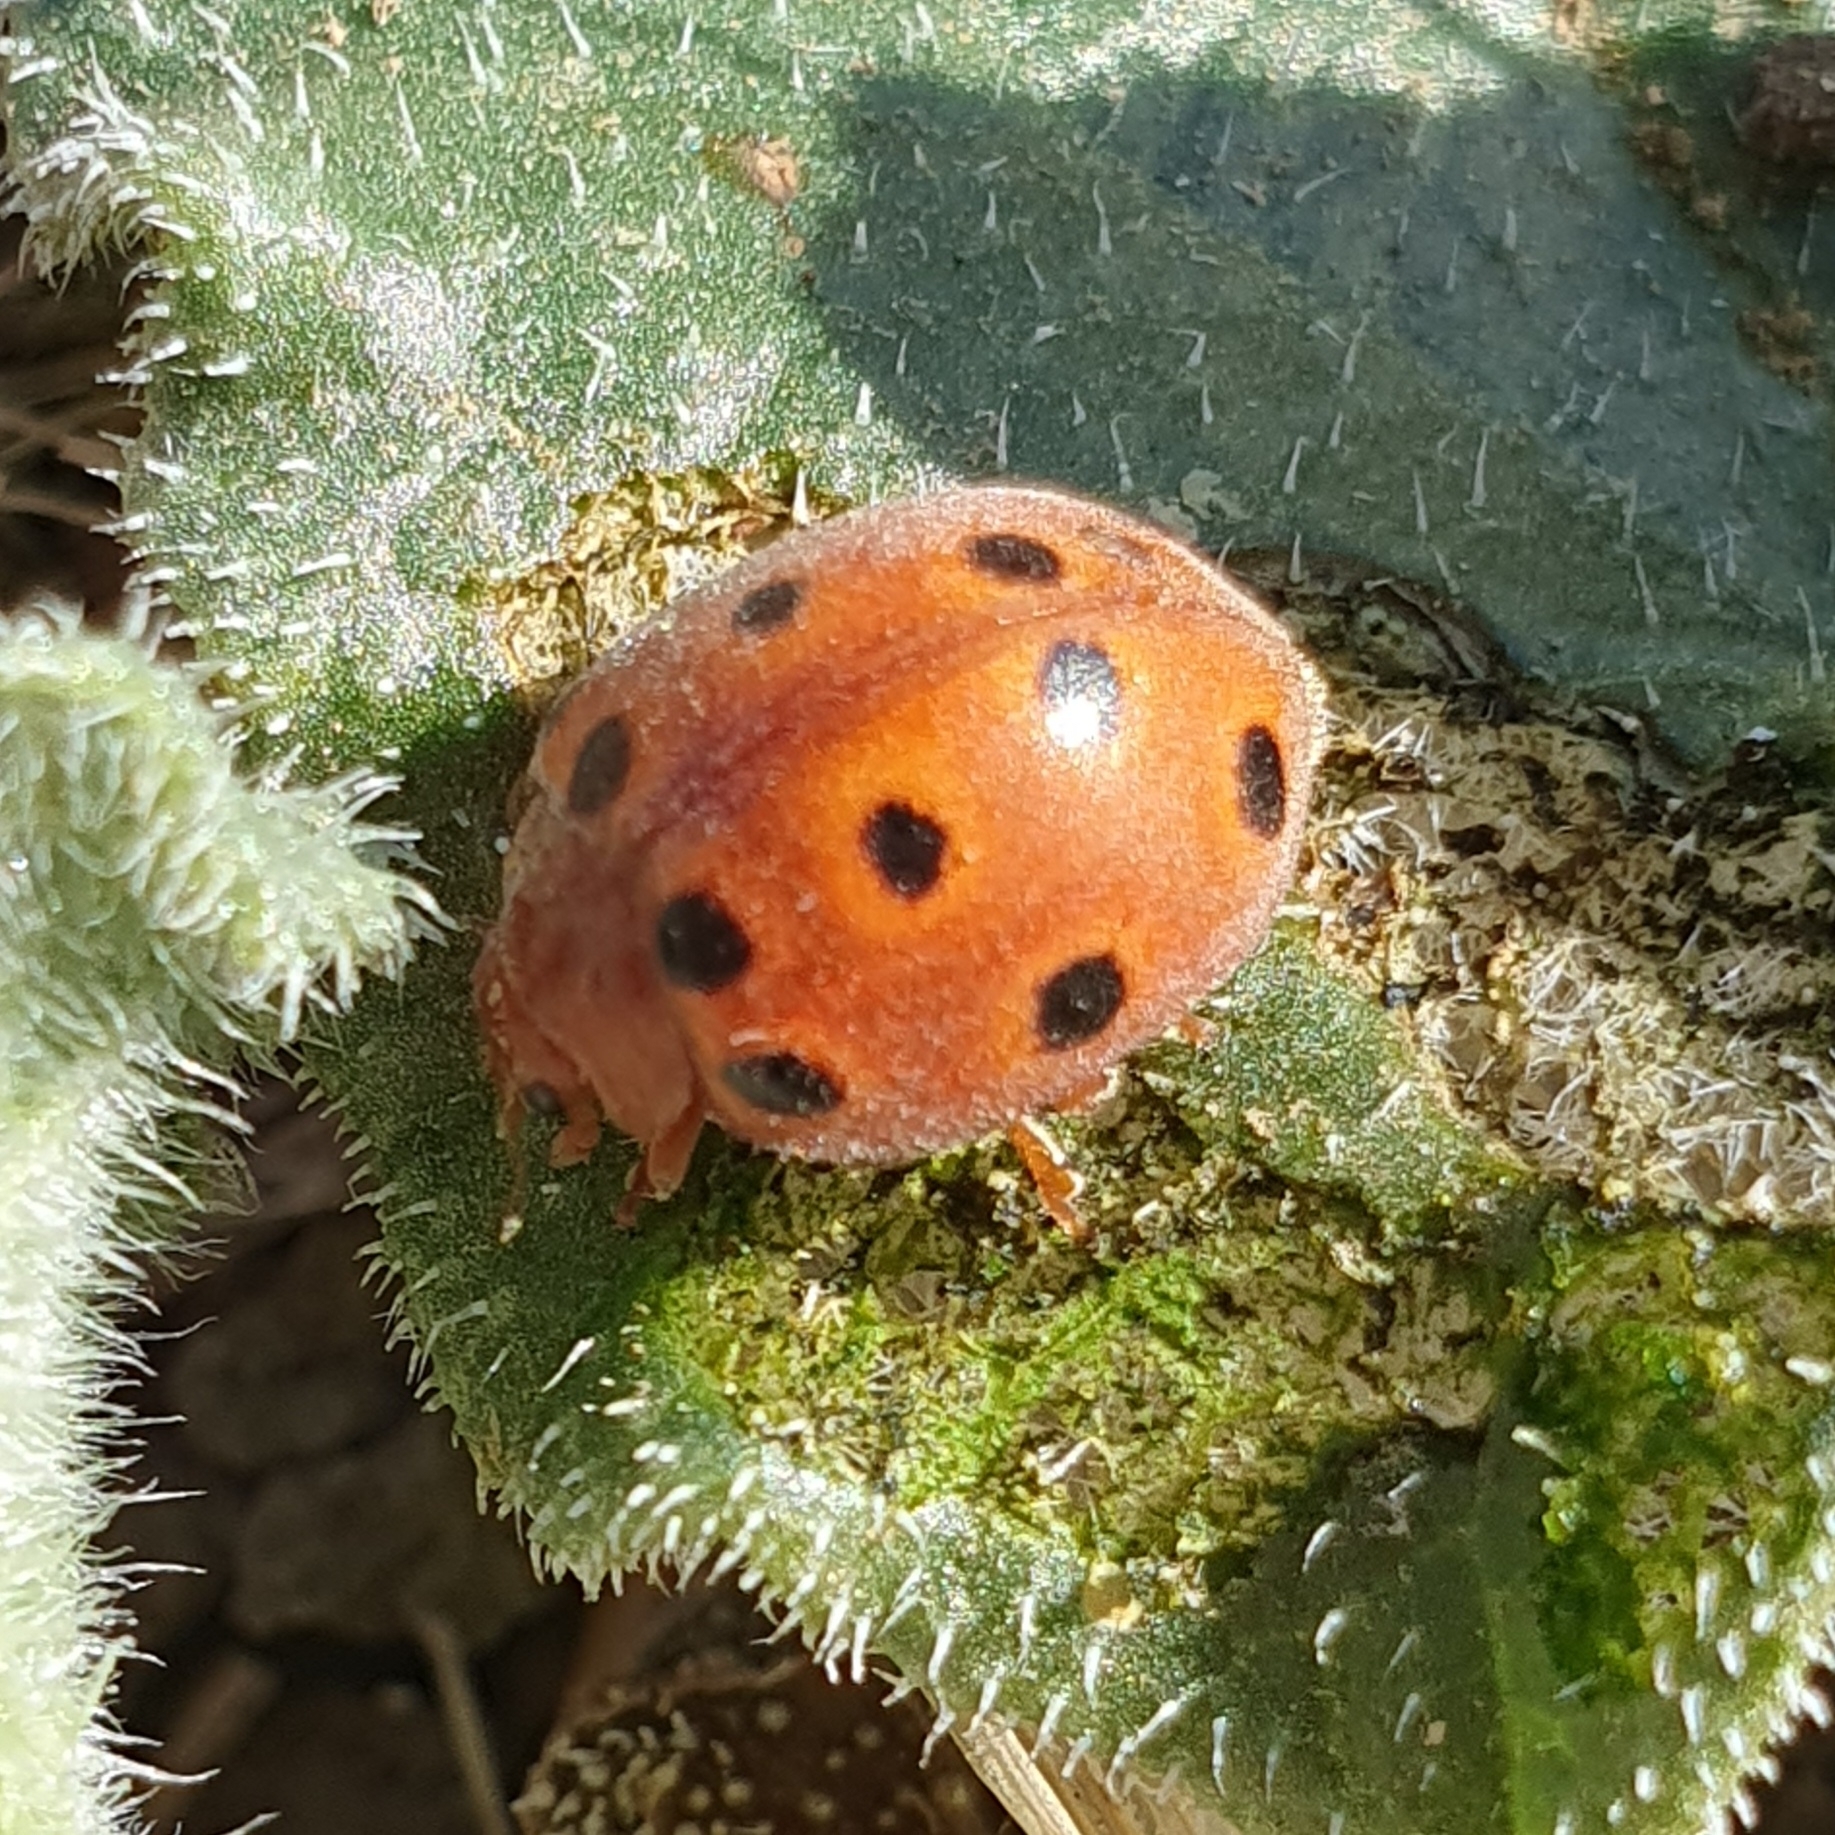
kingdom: Animalia
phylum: Arthropoda
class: Insecta
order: Coleoptera
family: Coccinellidae
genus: Chnootriba
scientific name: Chnootriba elaterii
